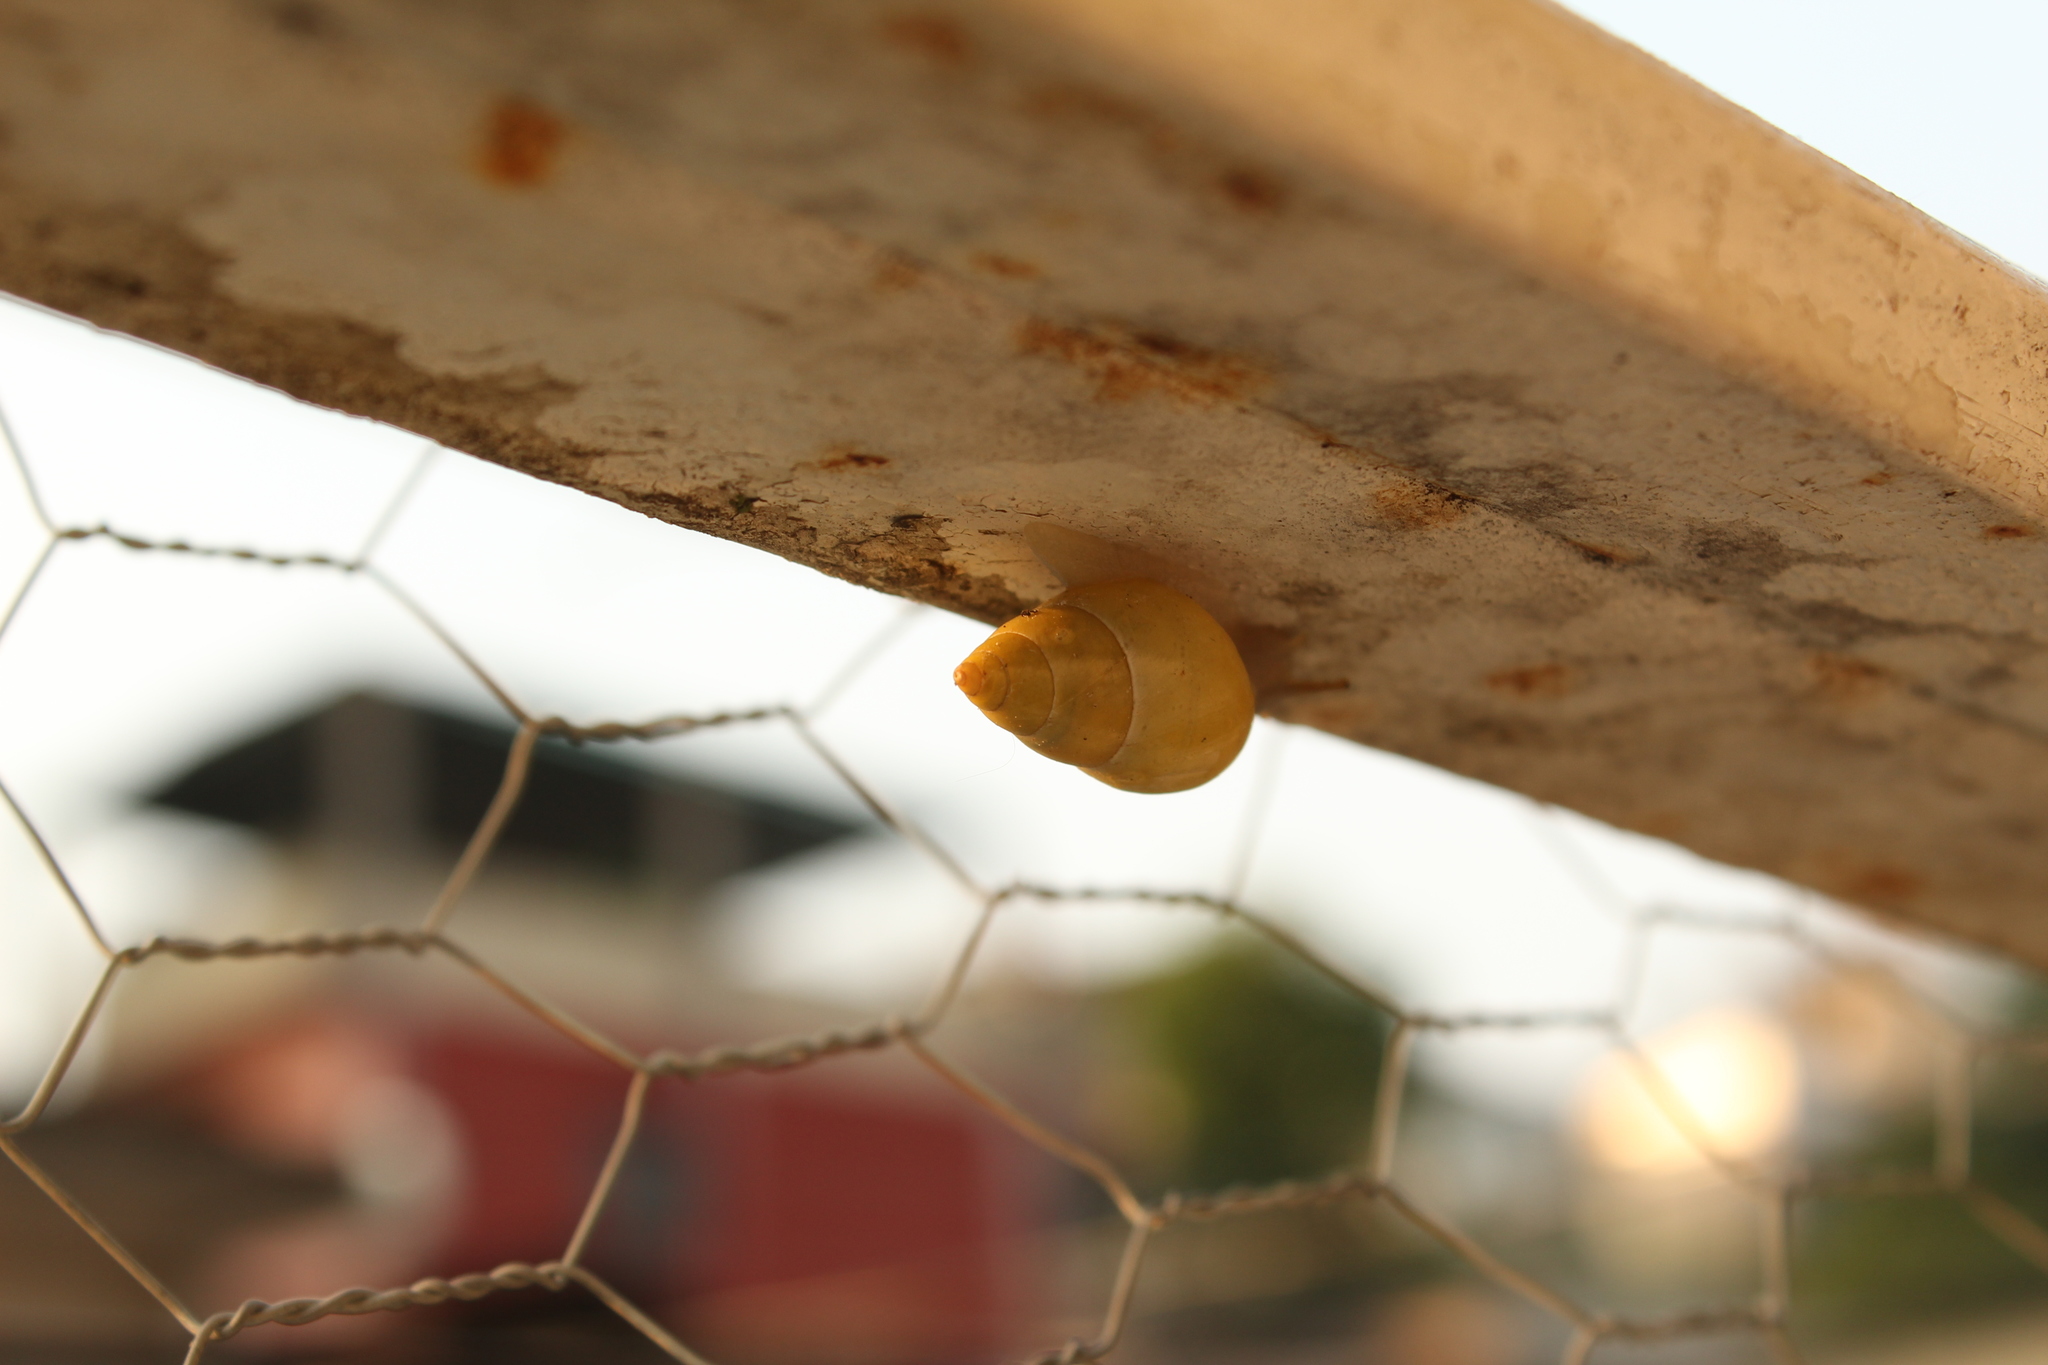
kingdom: Animalia
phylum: Mollusca
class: Gastropoda
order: Stylommatophora
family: Bulimulidae
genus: Drymaeus
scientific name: Drymaeus sulphureus
